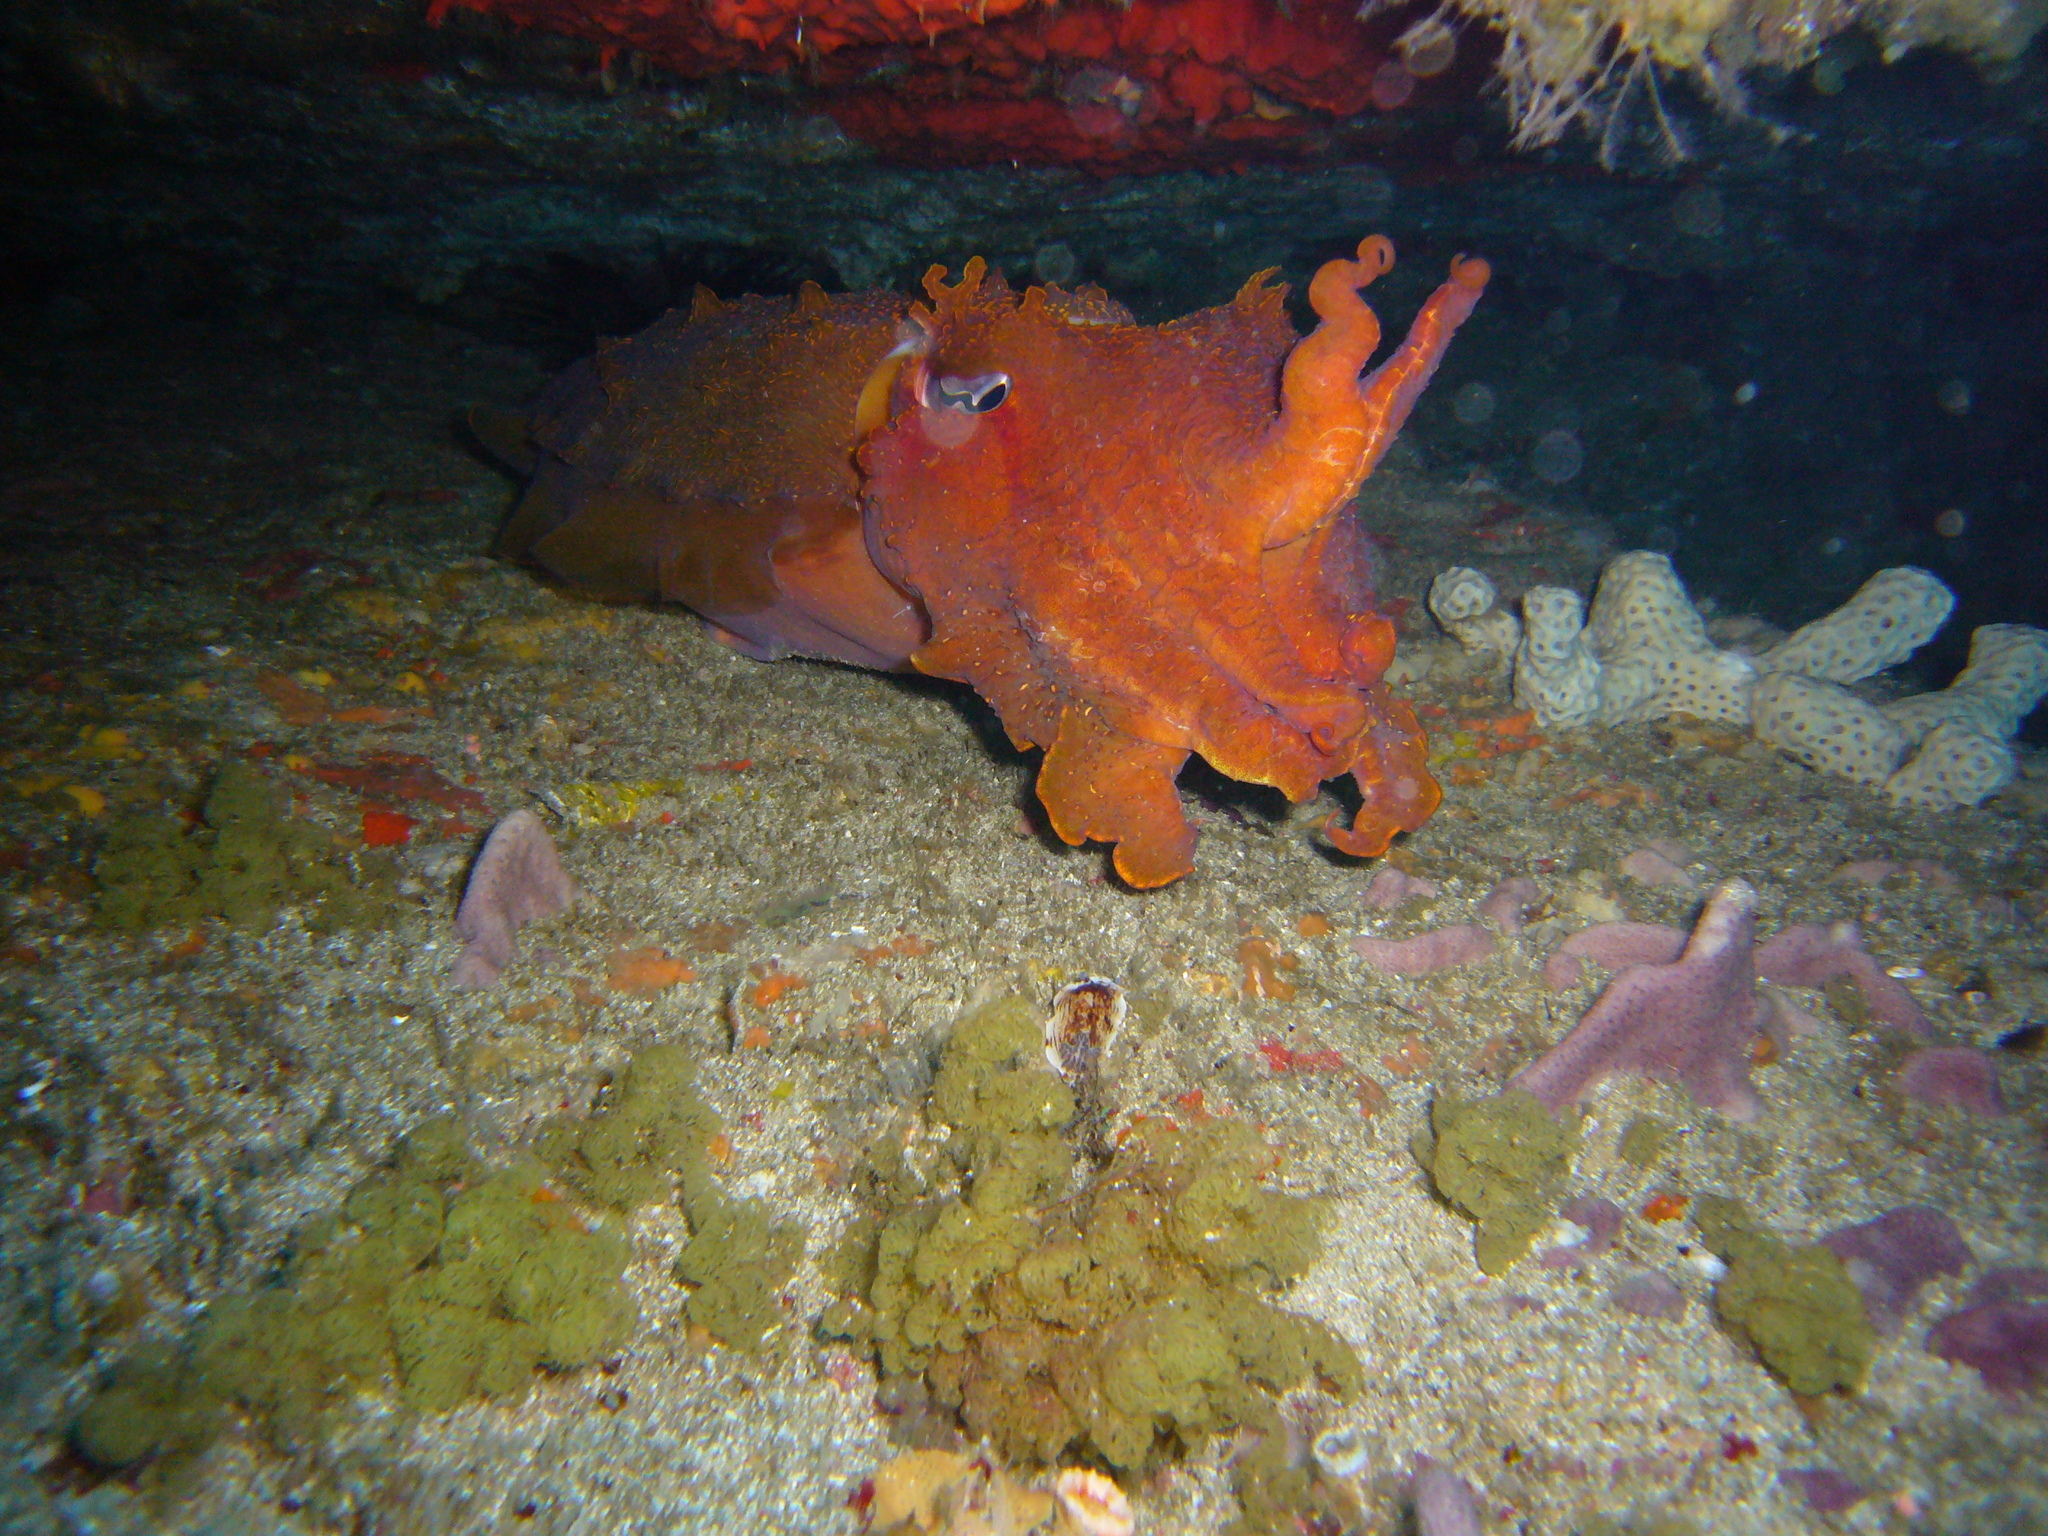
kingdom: Animalia
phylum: Mollusca
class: Cephalopoda
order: Sepiida
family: Sepiidae
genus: Ascarosepion
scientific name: Ascarosepion apama
